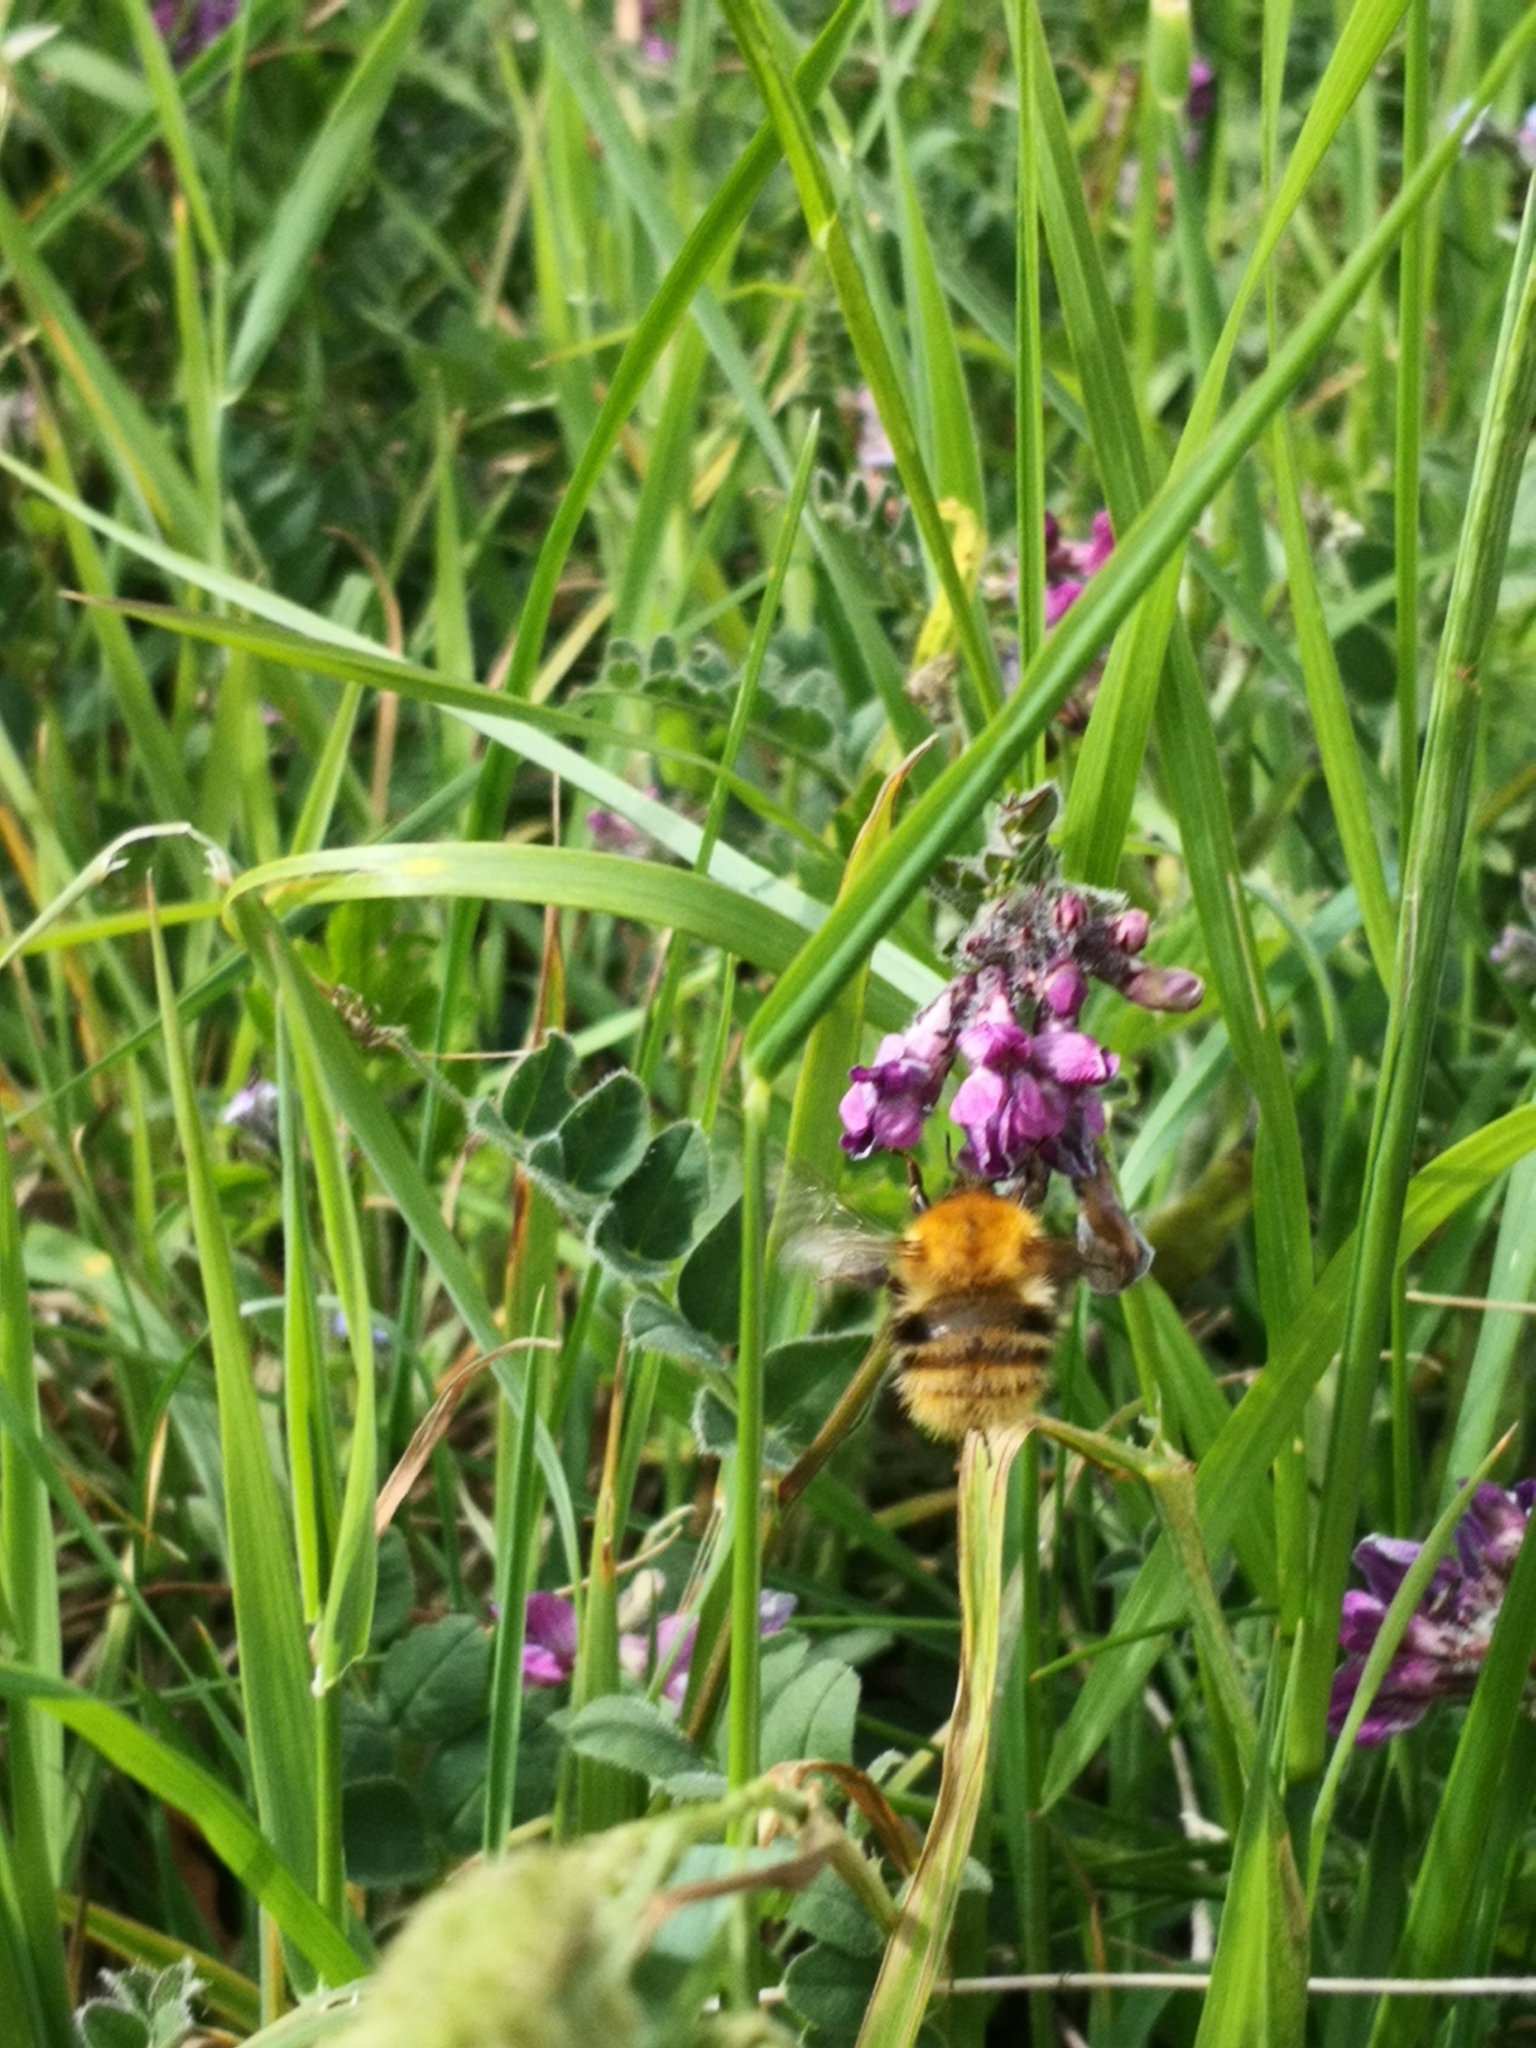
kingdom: Animalia
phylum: Arthropoda
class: Insecta
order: Hymenoptera
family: Apidae
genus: Bombus
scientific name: Bombus pascuorum
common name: Common carder bee
